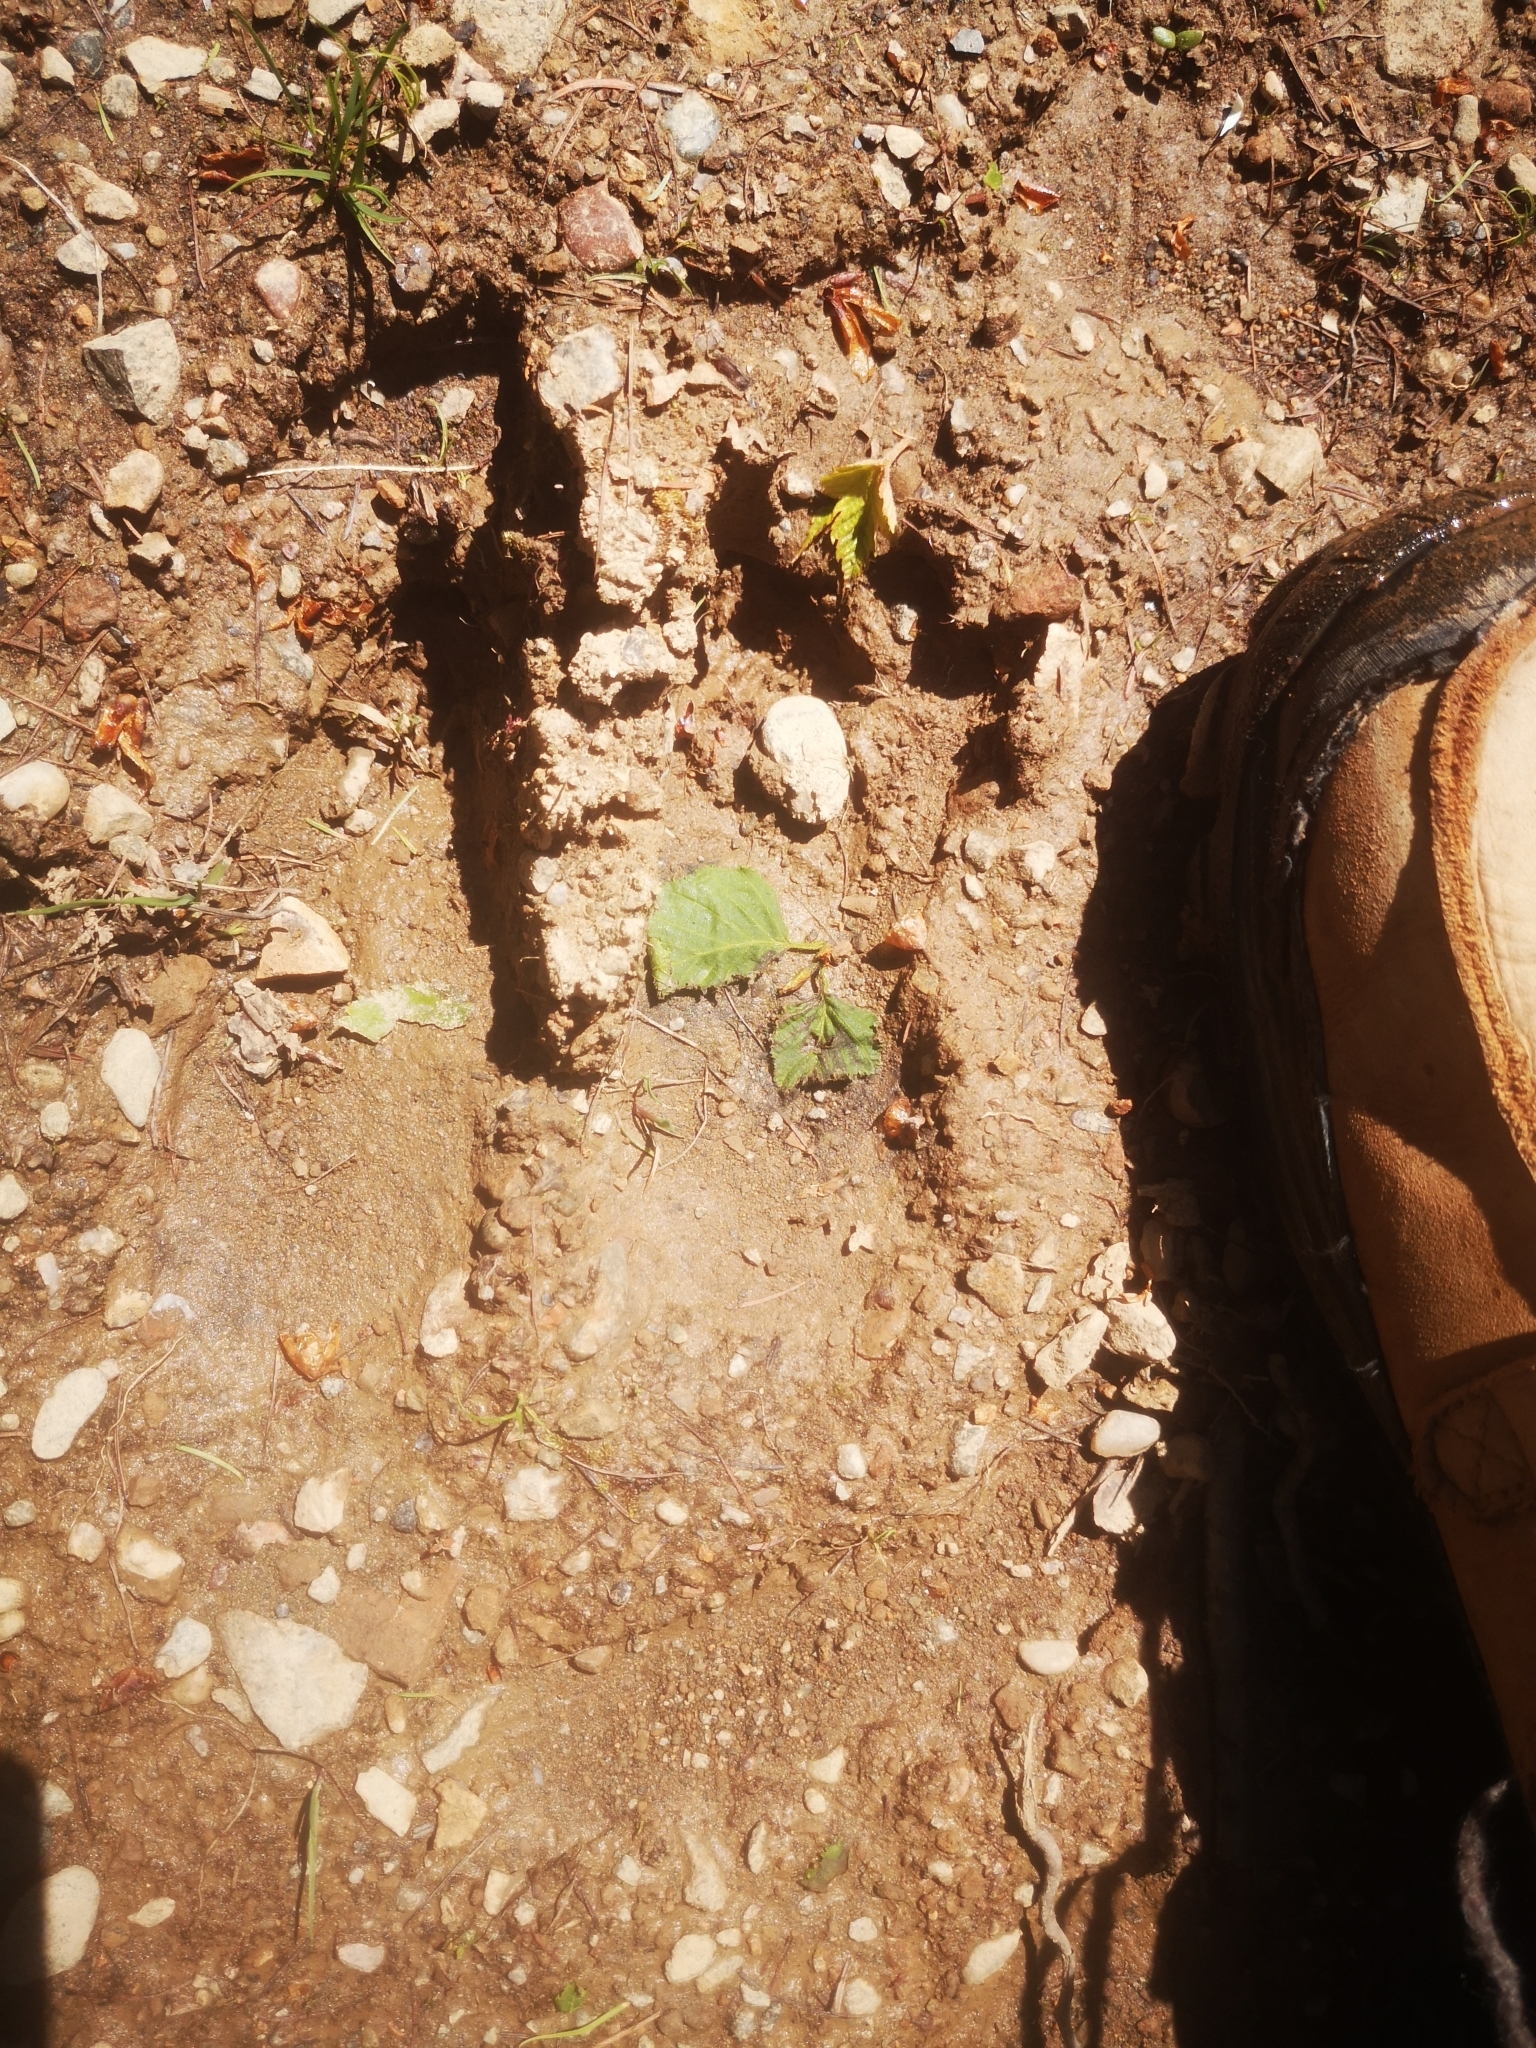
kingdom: Animalia
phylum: Chordata
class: Mammalia
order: Artiodactyla
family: Cervidae
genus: Alces
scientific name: Alces alces
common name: Moose
